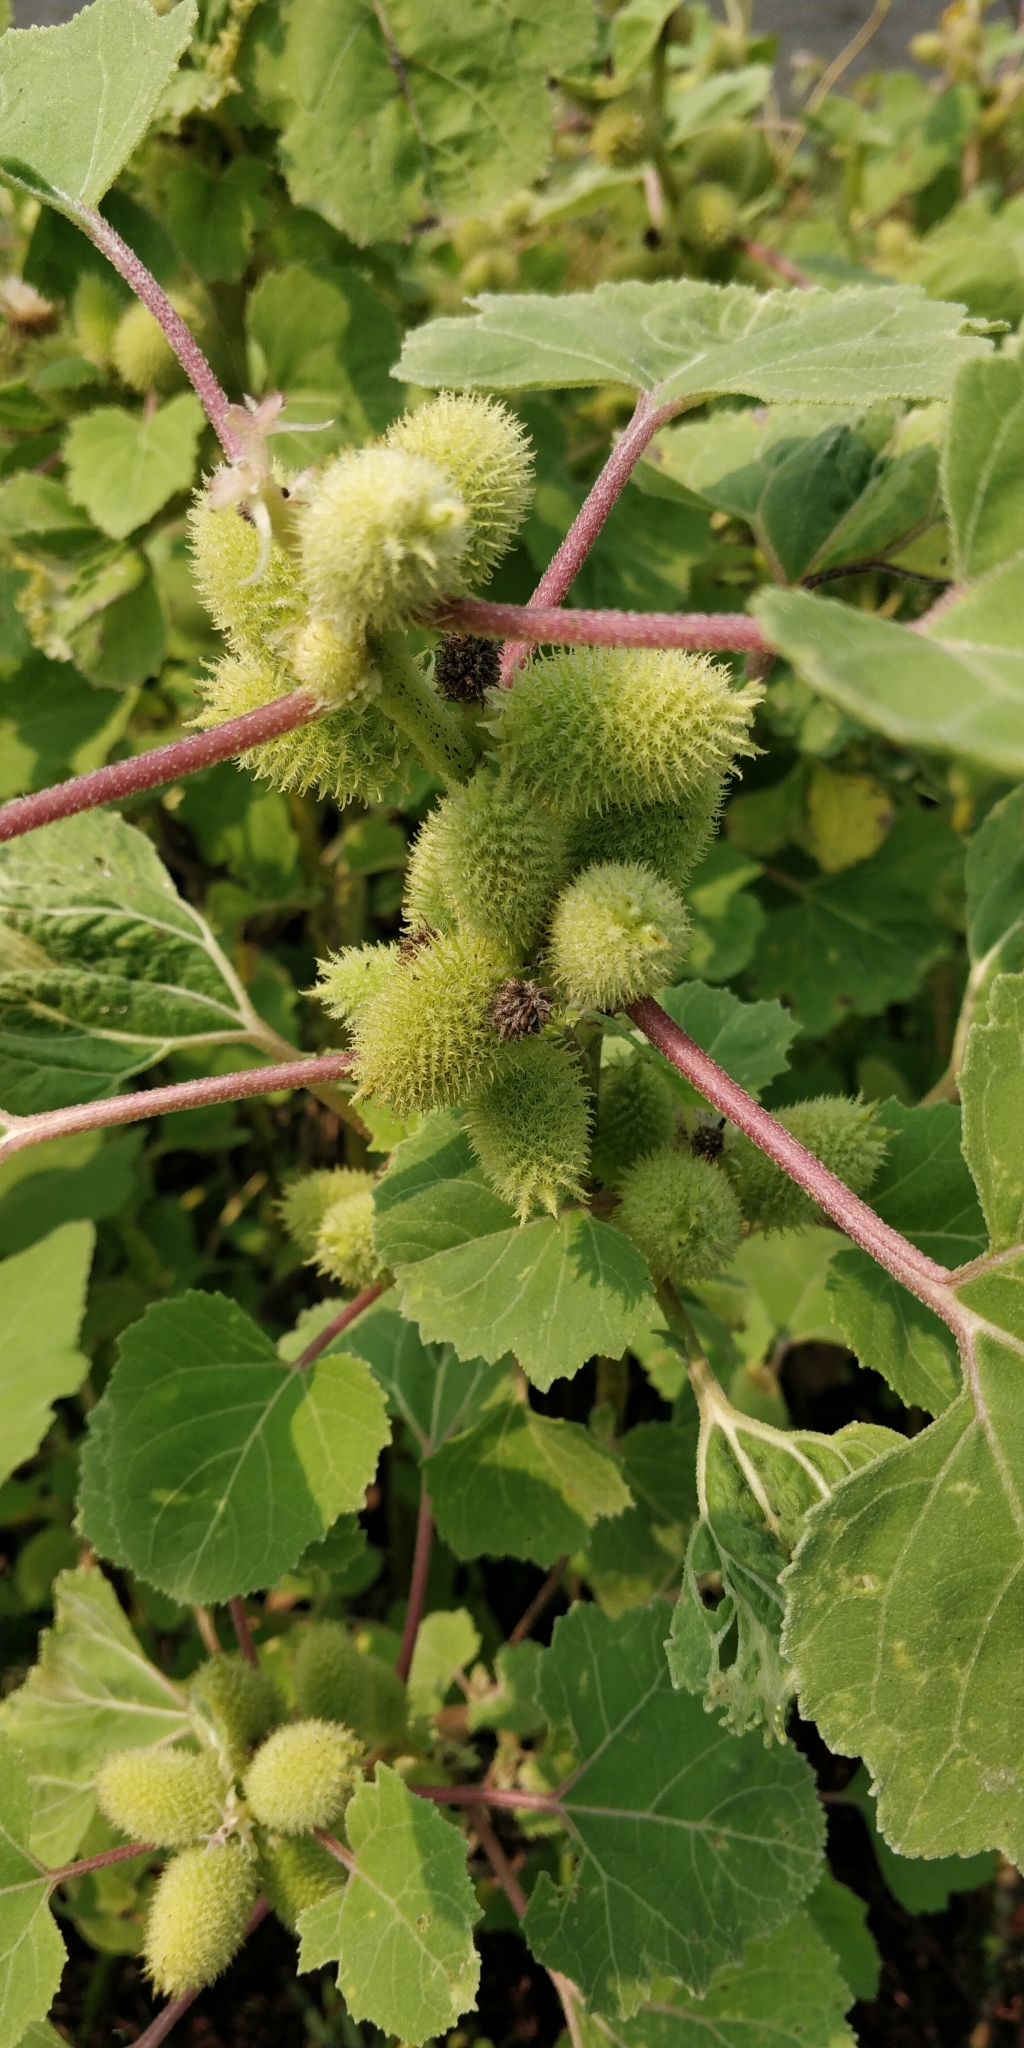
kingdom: Plantae
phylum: Tracheophyta
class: Magnoliopsida
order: Asterales
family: Asteraceae
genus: Xanthium
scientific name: Xanthium strumarium
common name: Rough cocklebur
